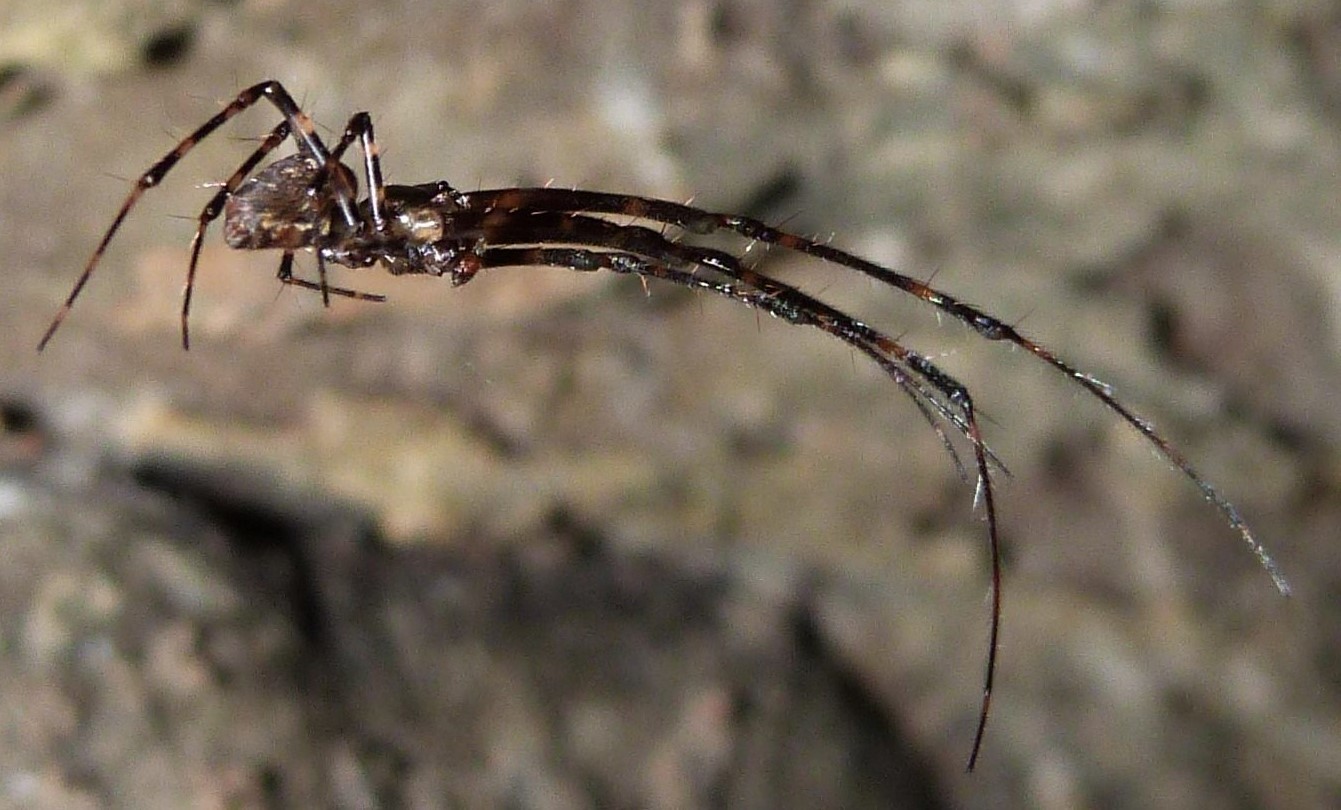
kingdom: Animalia
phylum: Arthropoda
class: Arachnida
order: Araneae
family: Tetragnathidae
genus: Azilia
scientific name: Azilia affinis
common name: Longjawed orb weavers
